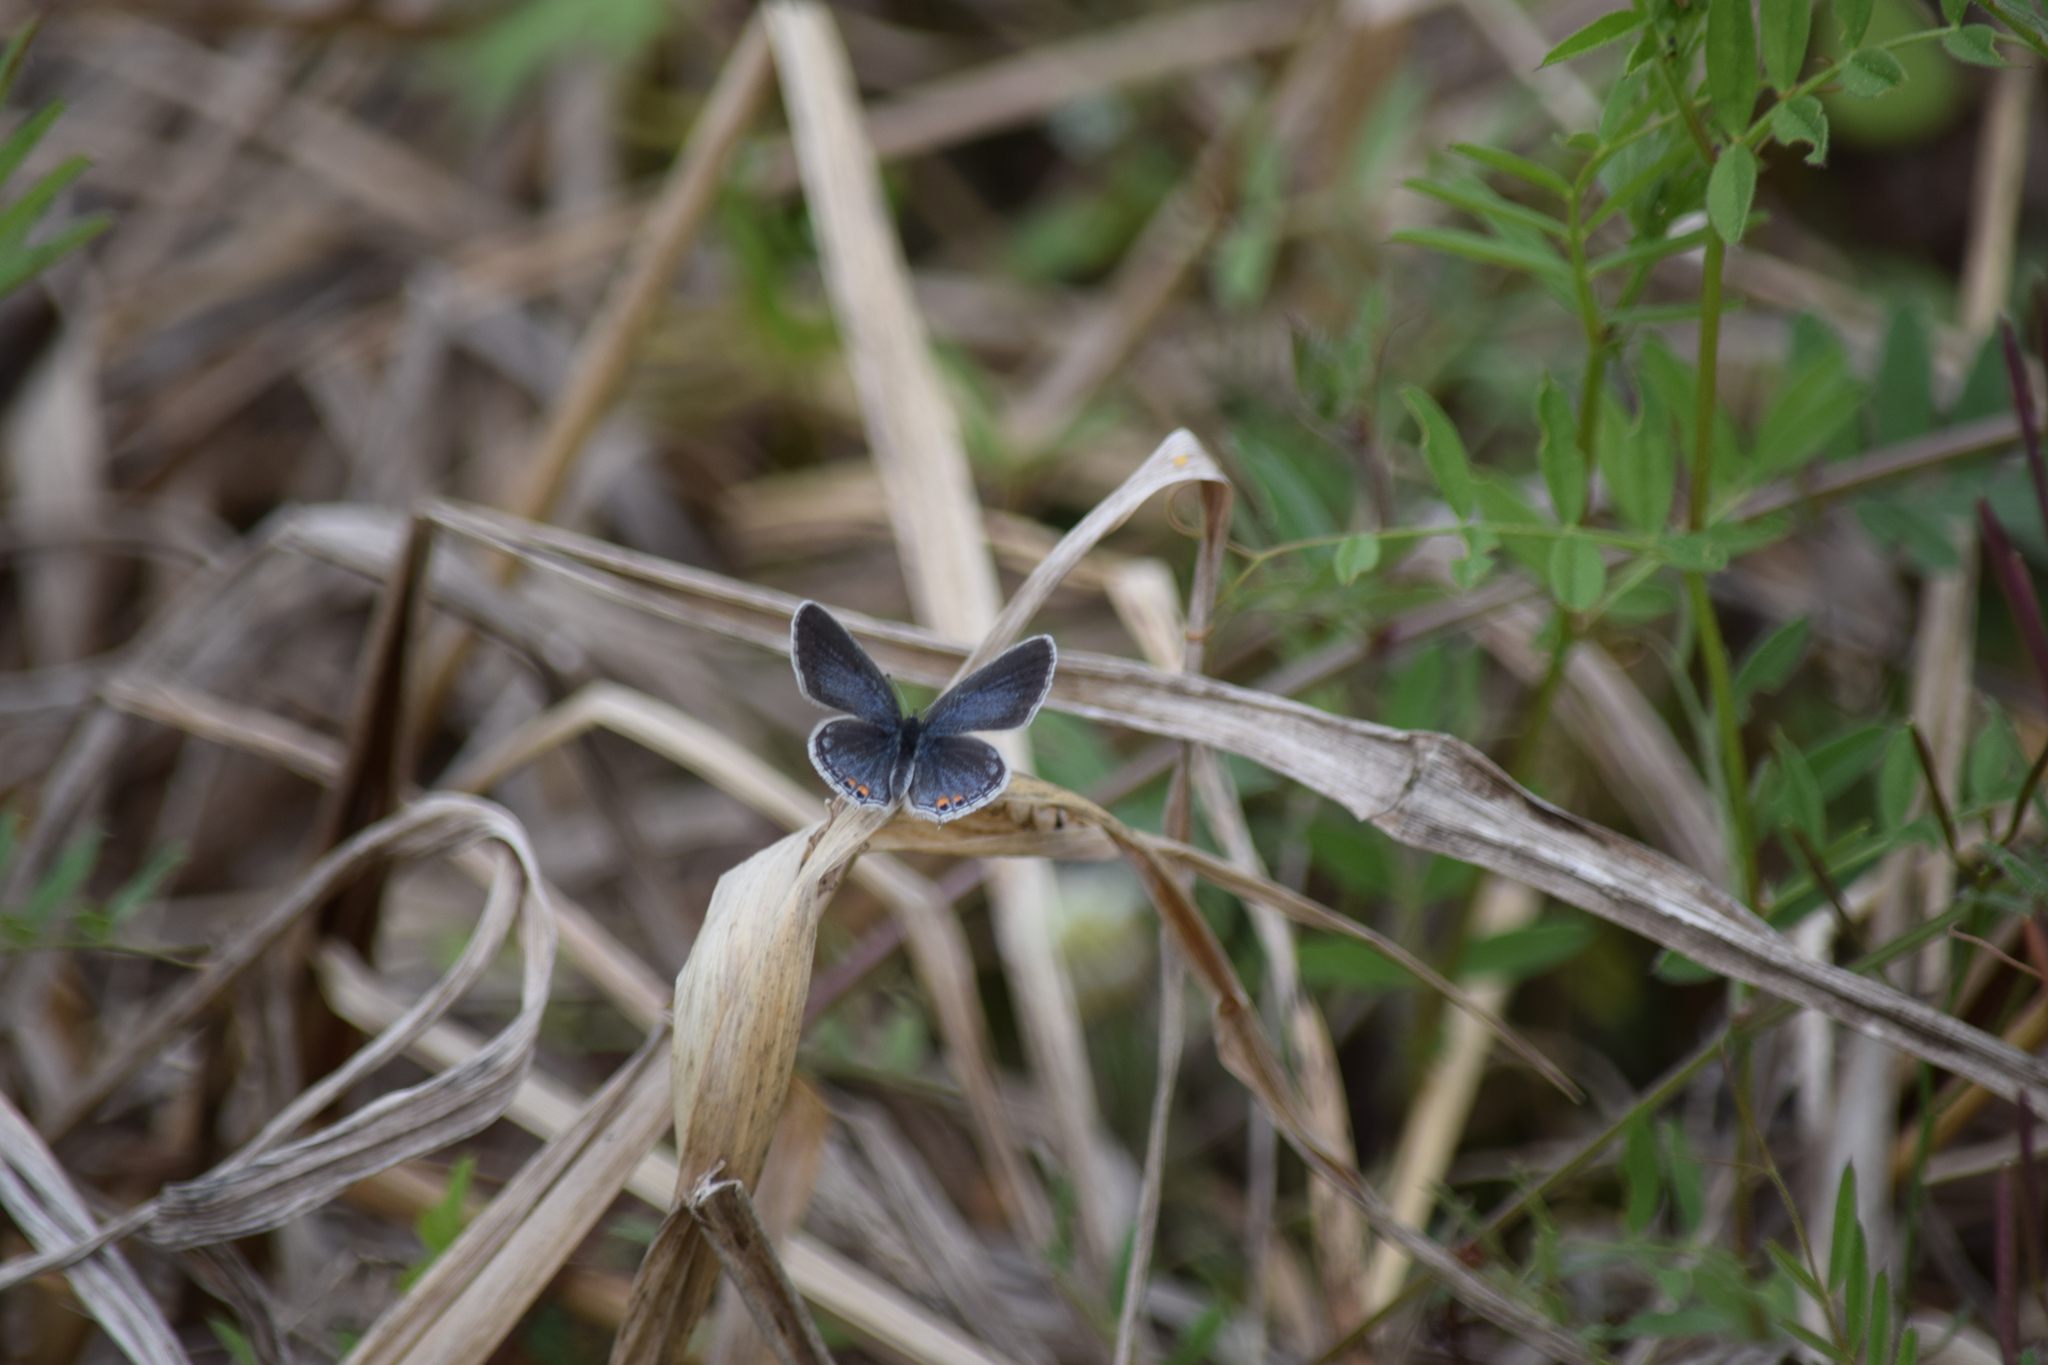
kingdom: Animalia
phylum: Arthropoda
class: Insecta
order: Lepidoptera
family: Lycaenidae
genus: Elkalyce
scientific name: Elkalyce comyntas
